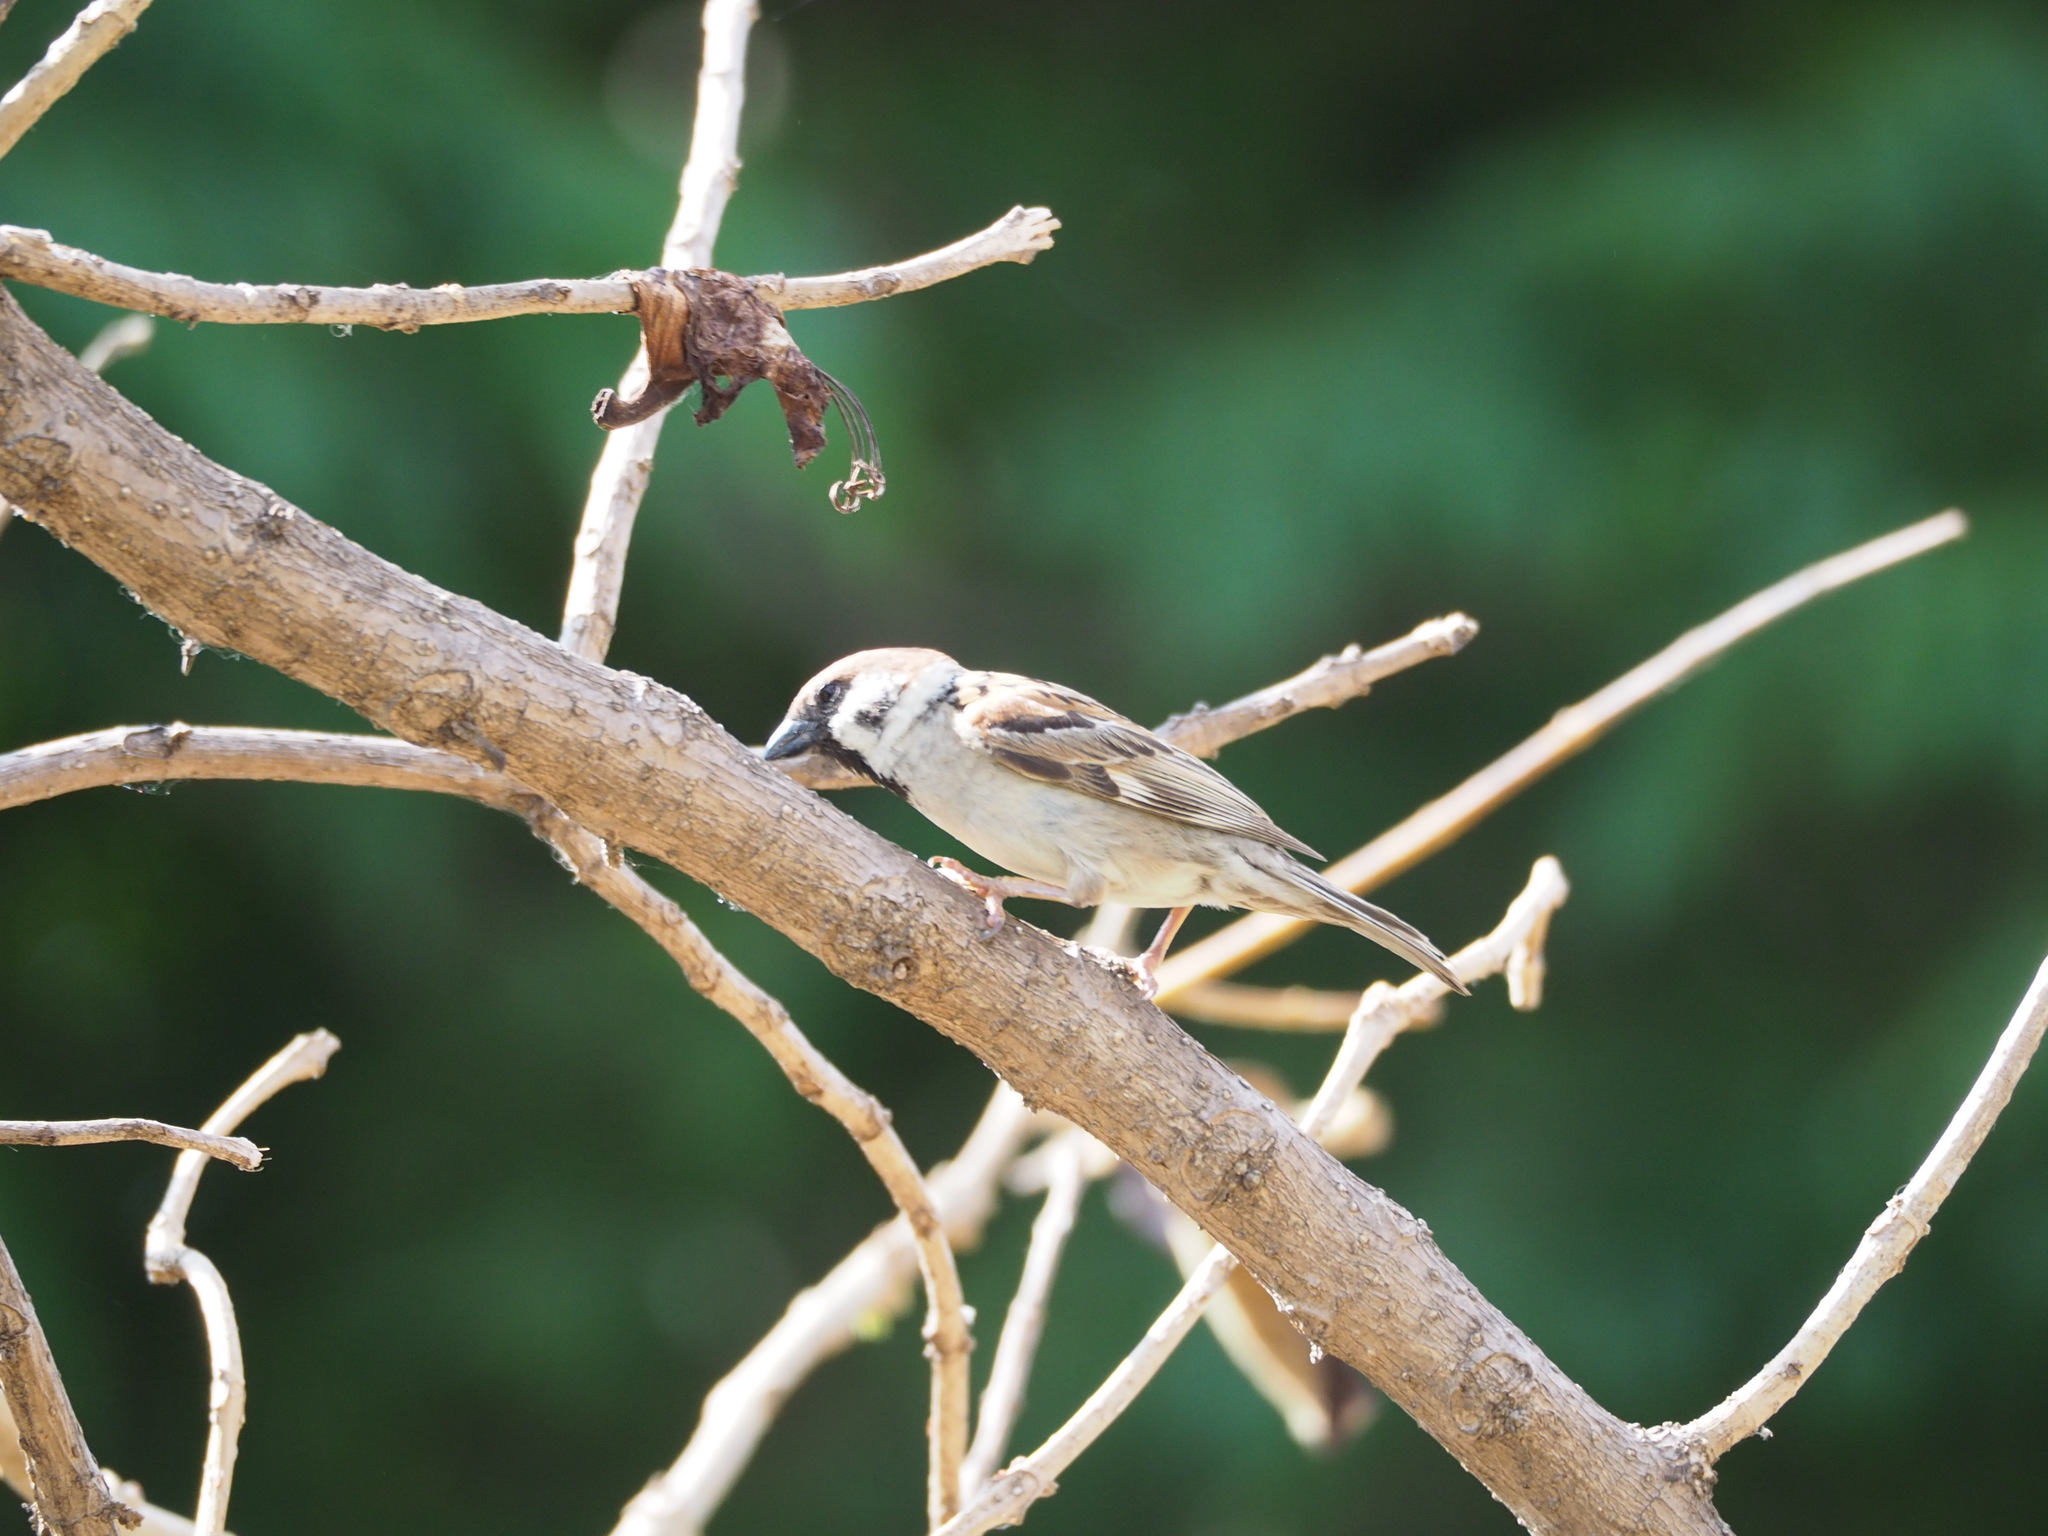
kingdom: Animalia
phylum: Chordata
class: Aves
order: Passeriformes
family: Passeridae
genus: Passer
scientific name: Passer montanus
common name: Eurasian tree sparrow
